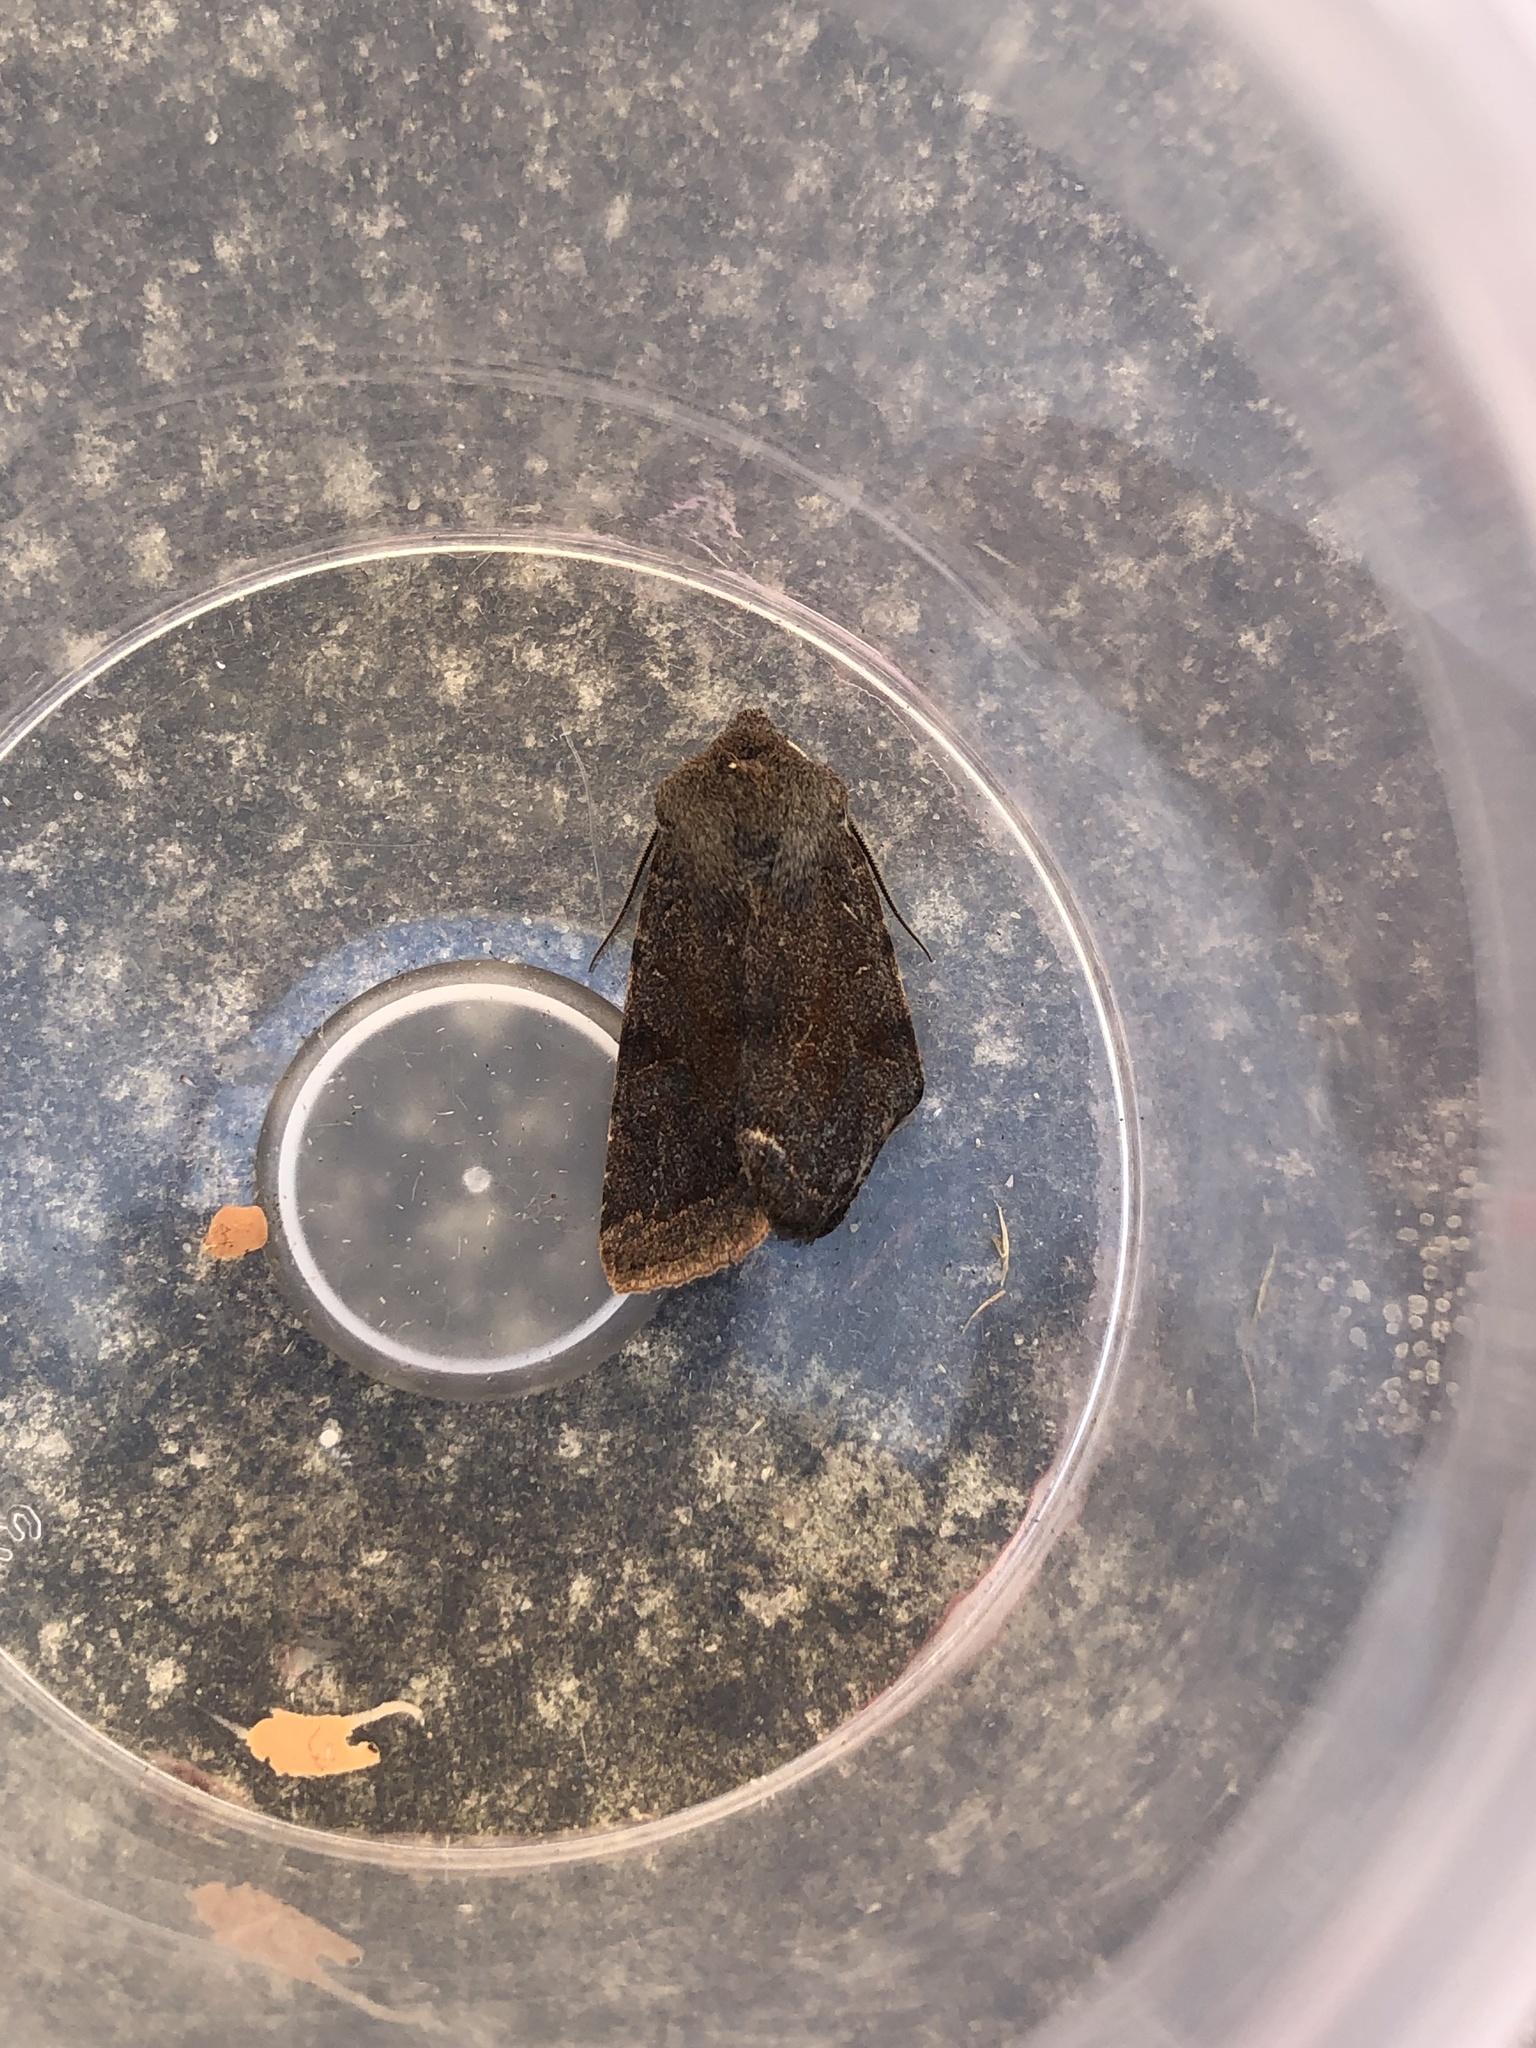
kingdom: Animalia
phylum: Arthropoda
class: Insecta
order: Lepidoptera
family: Noctuidae
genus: Orthosia
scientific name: Orthosia incerta
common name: Clouded drab
